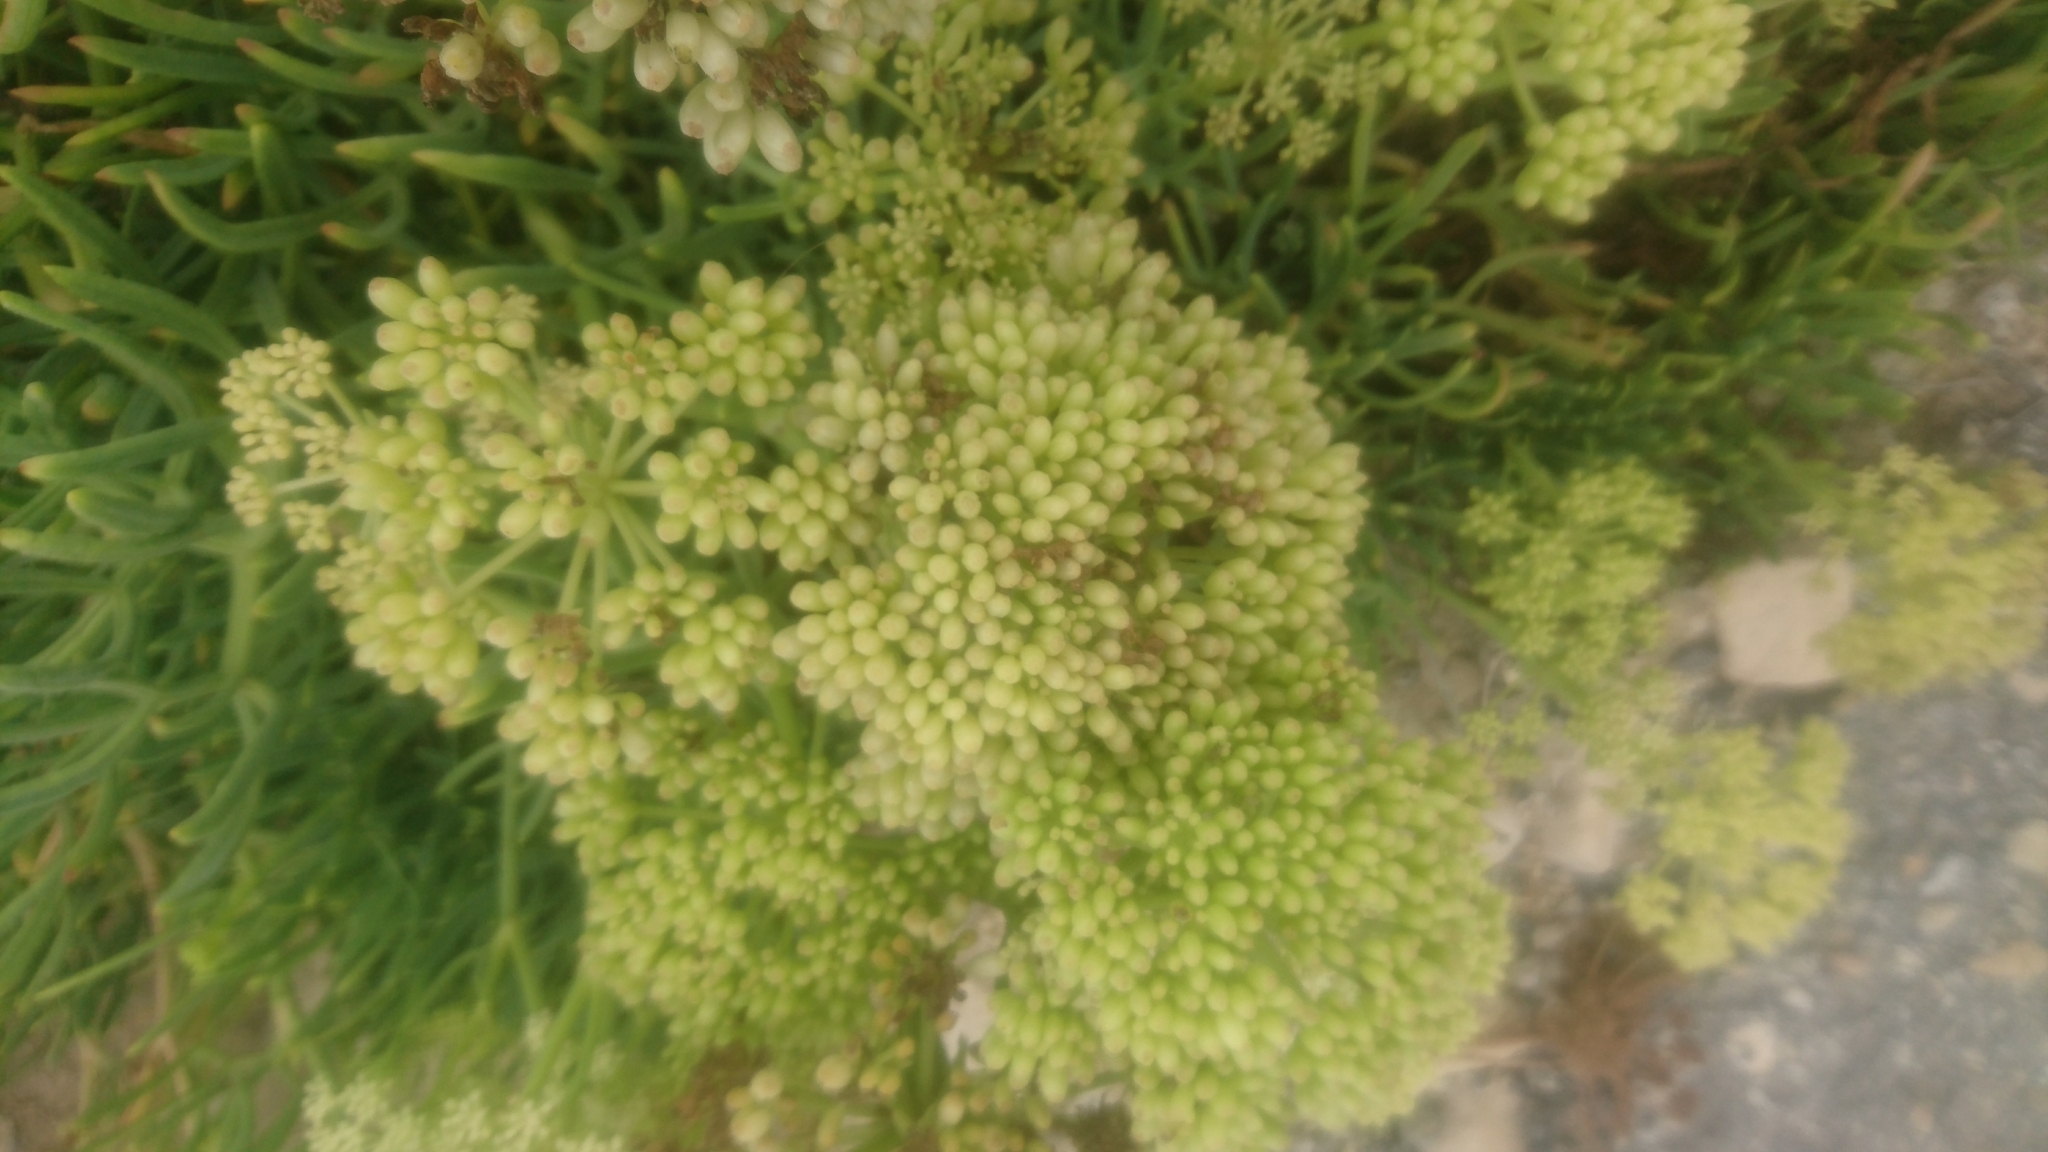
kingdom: Plantae
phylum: Tracheophyta
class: Magnoliopsida
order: Apiales
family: Apiaceae
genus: Crithmum
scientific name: Crithmum maritimum
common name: Rock samphire
